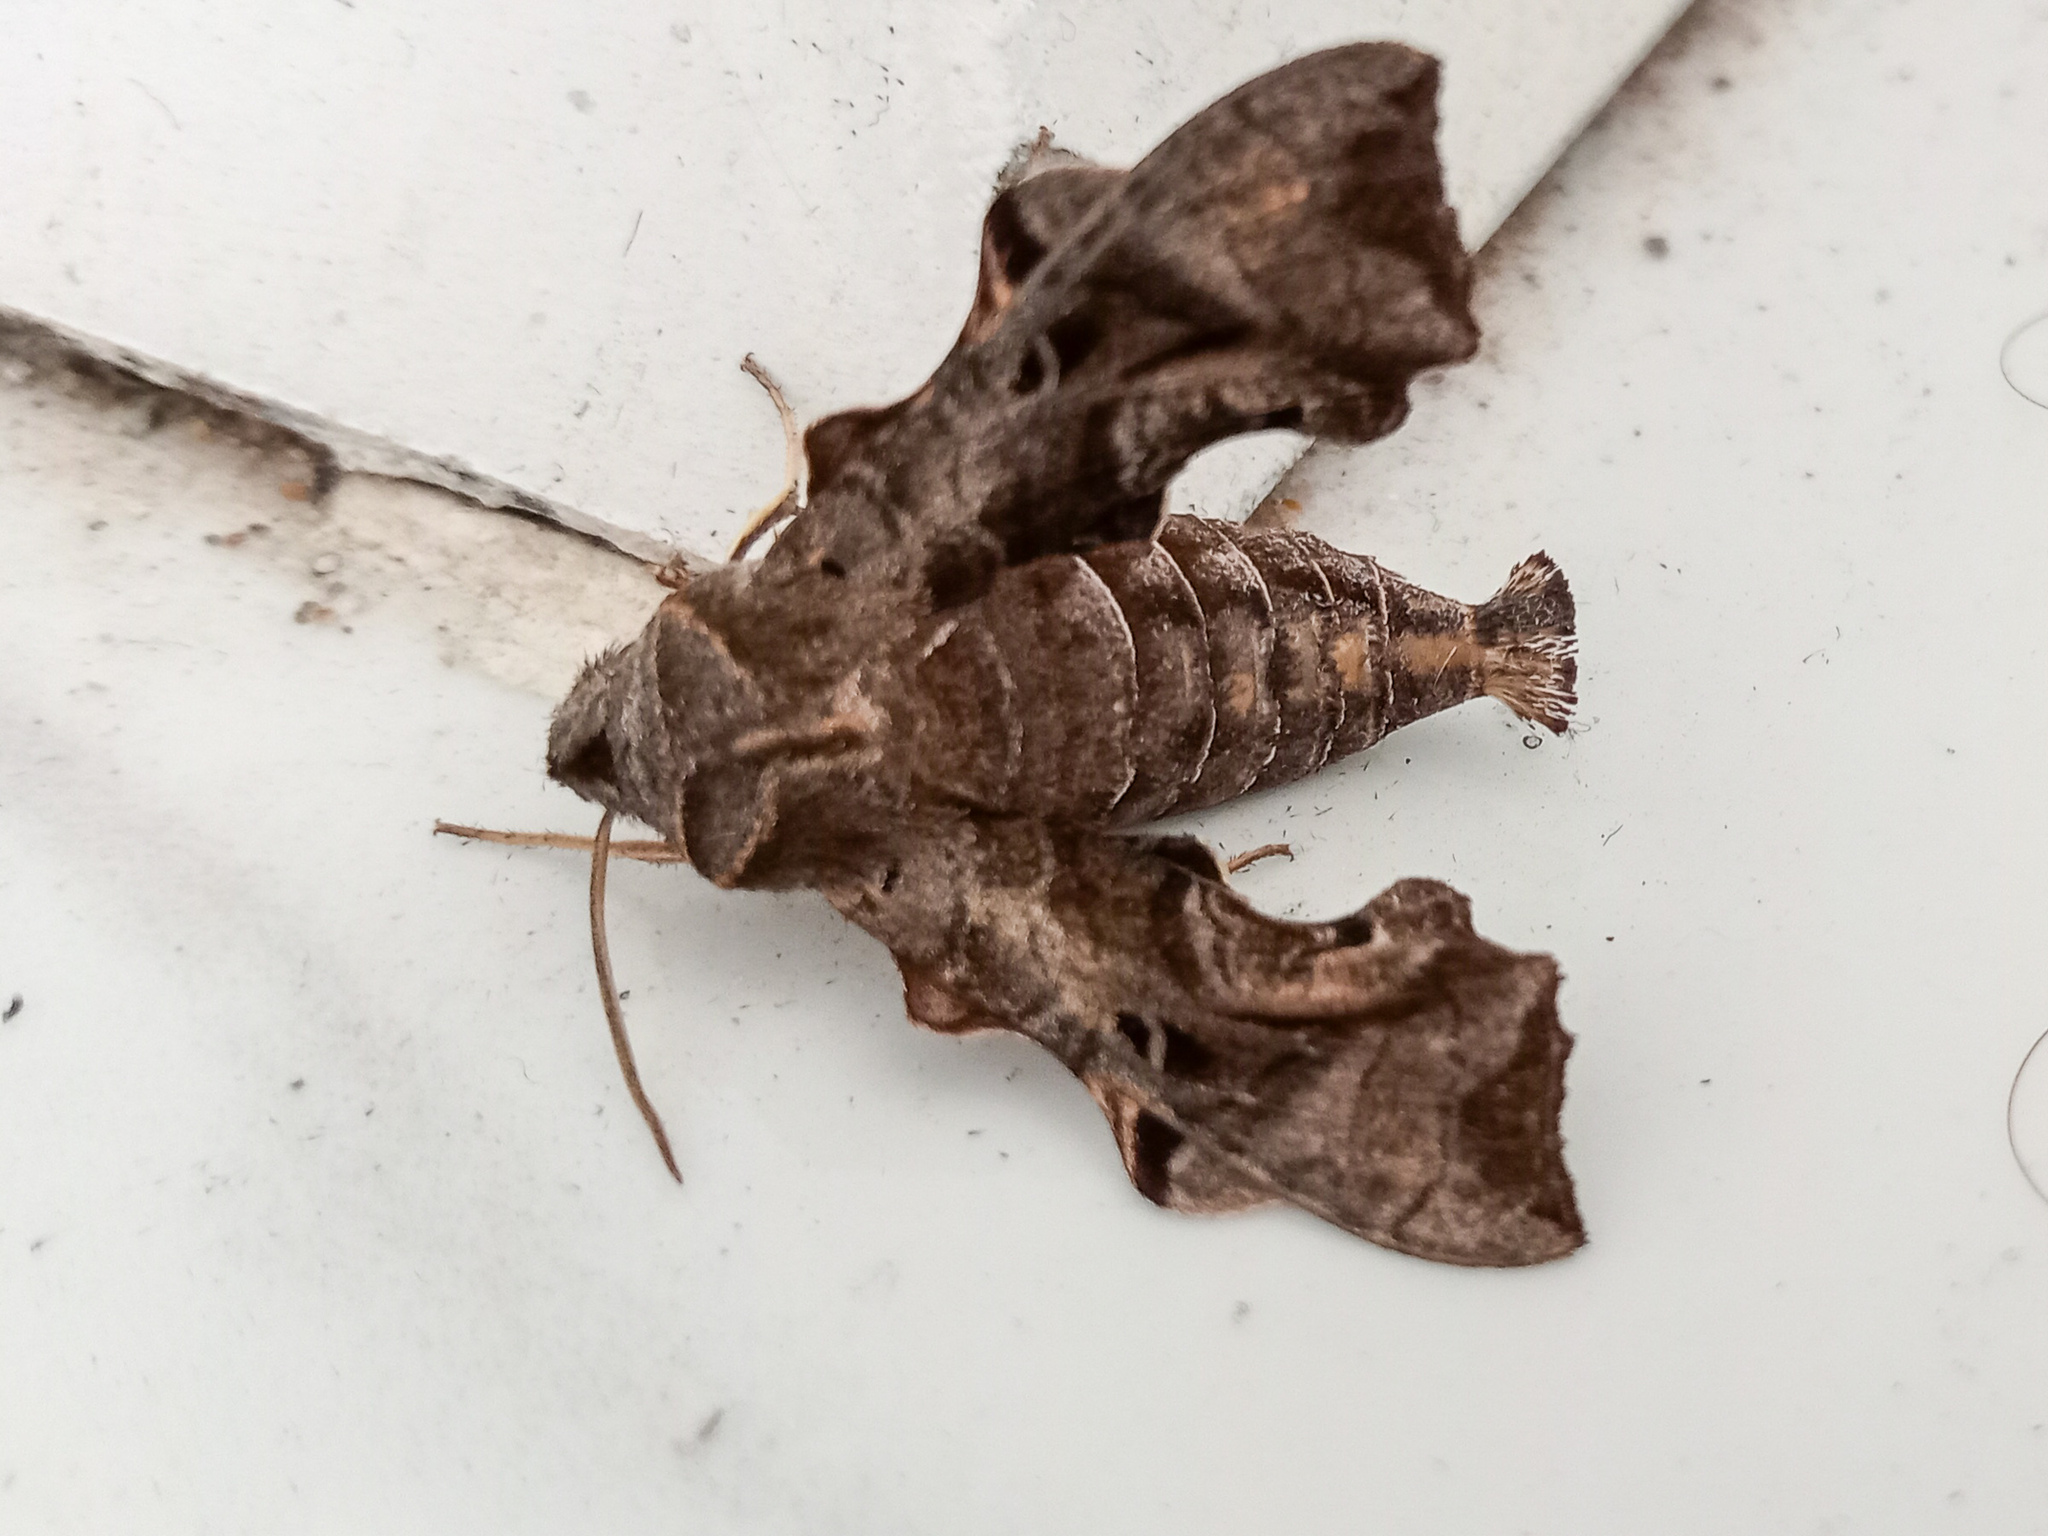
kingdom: Animalia
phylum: Arthropoda
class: Insecta
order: Lepidoptera
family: Sphingidae
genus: Neogurelca
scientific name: Neogurelca hyas
